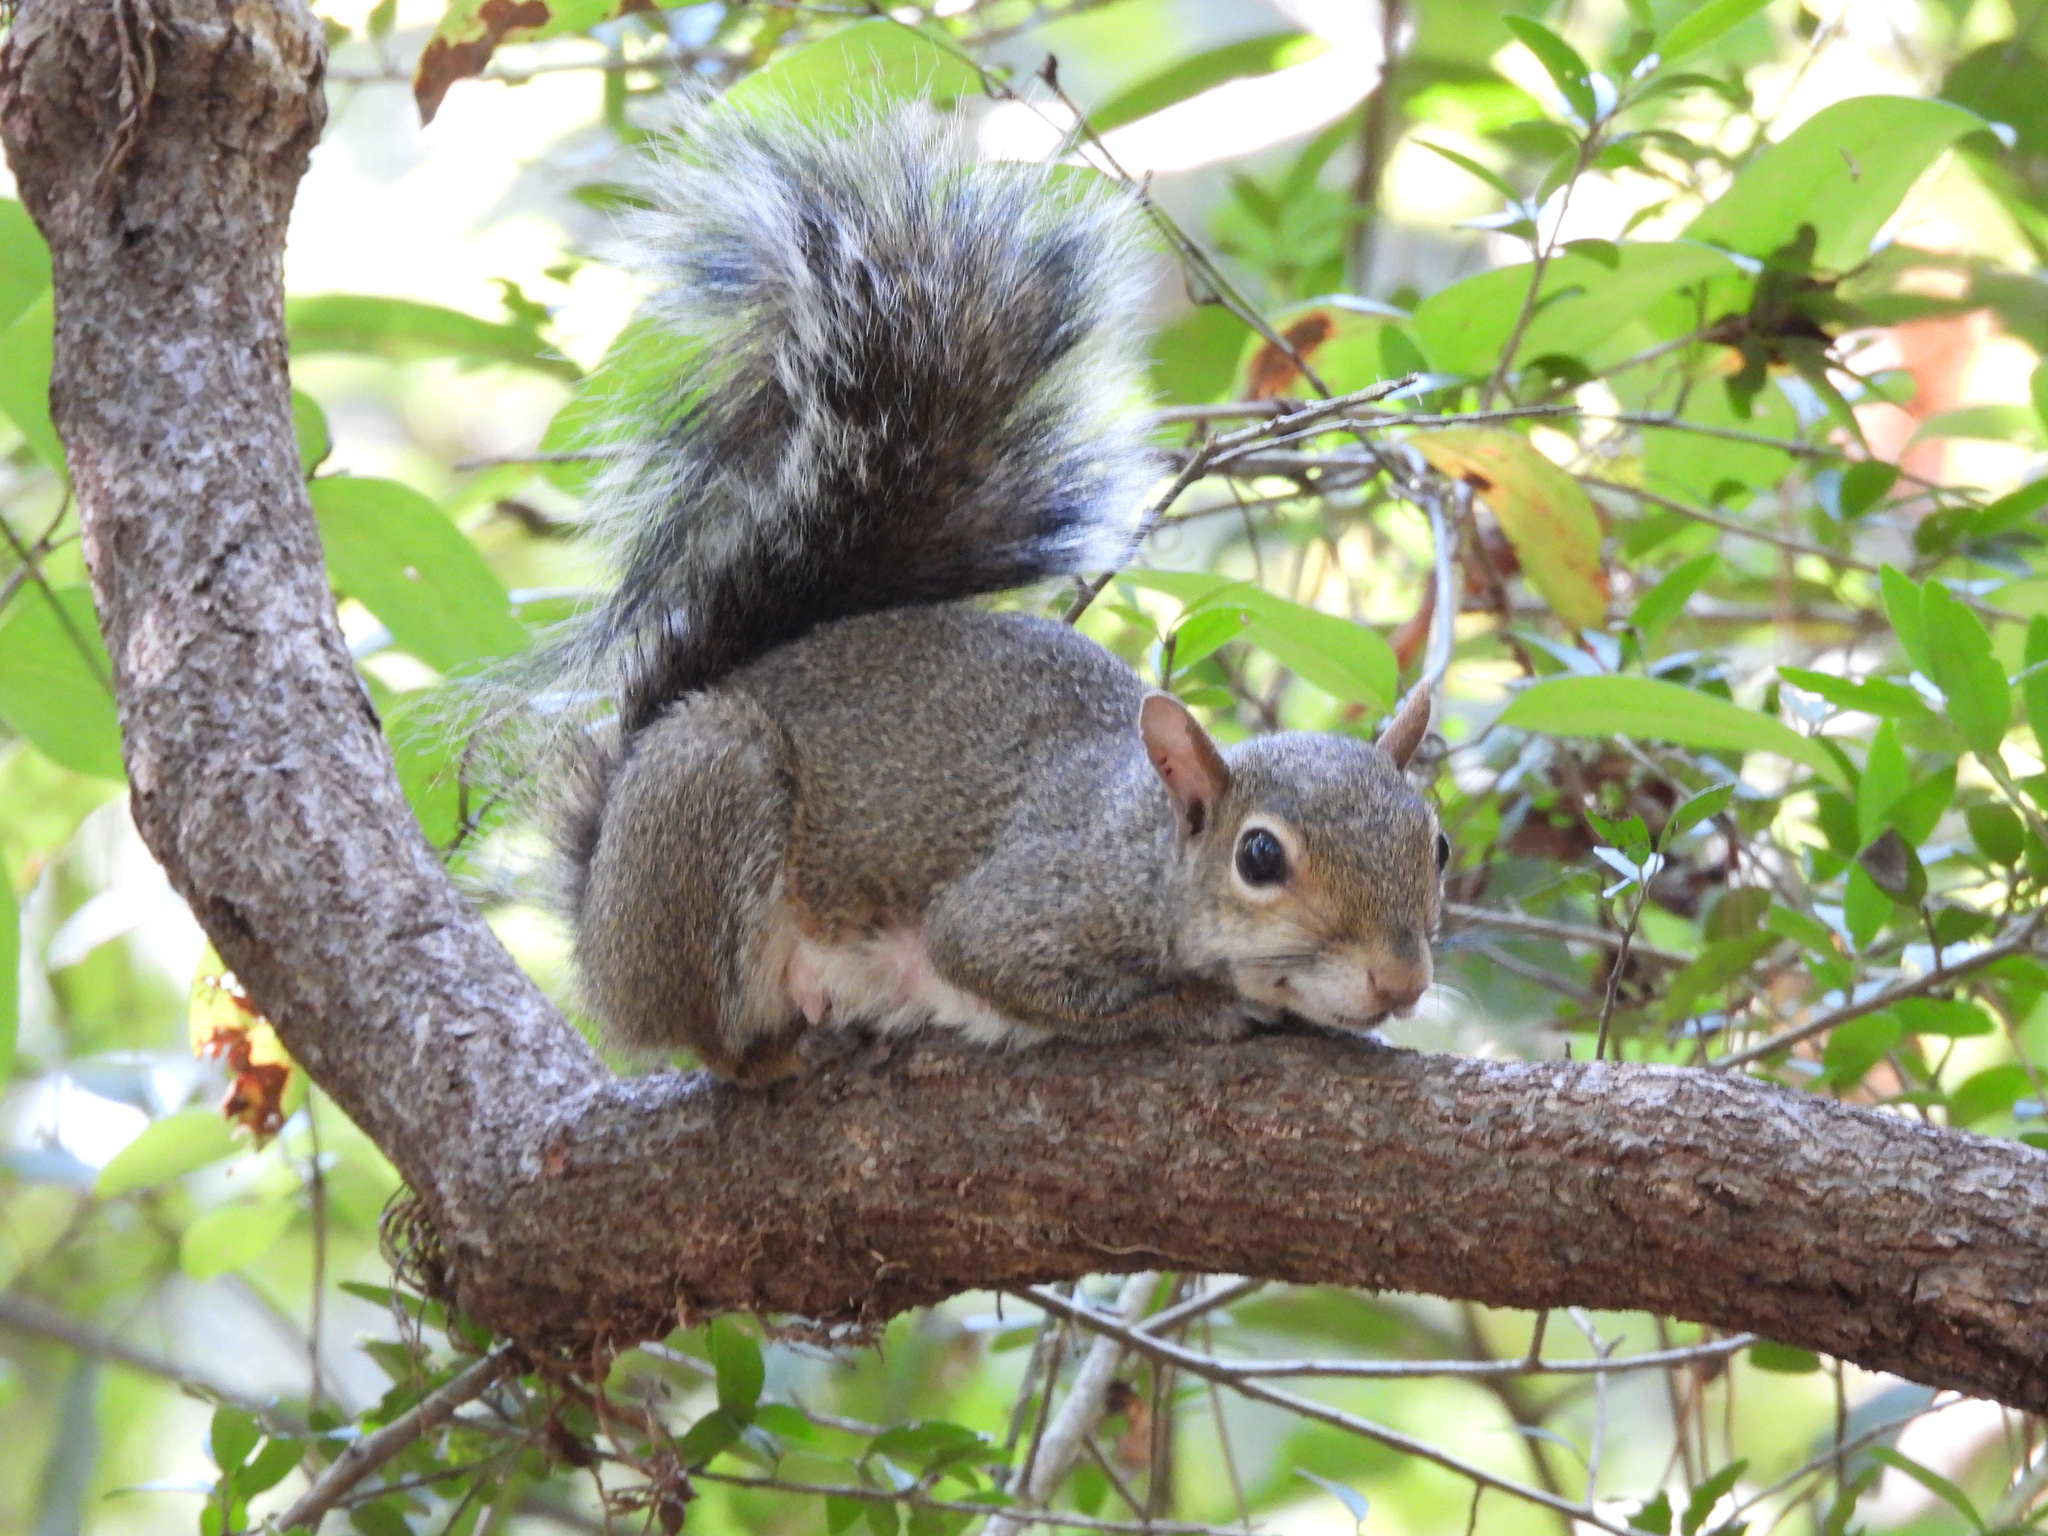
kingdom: Animalia
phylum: Chordata
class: Mammalia
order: Rodentia
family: Sciuridae
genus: Sciurus
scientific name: Sciurus carolinensis
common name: Eastern gray squirrel
